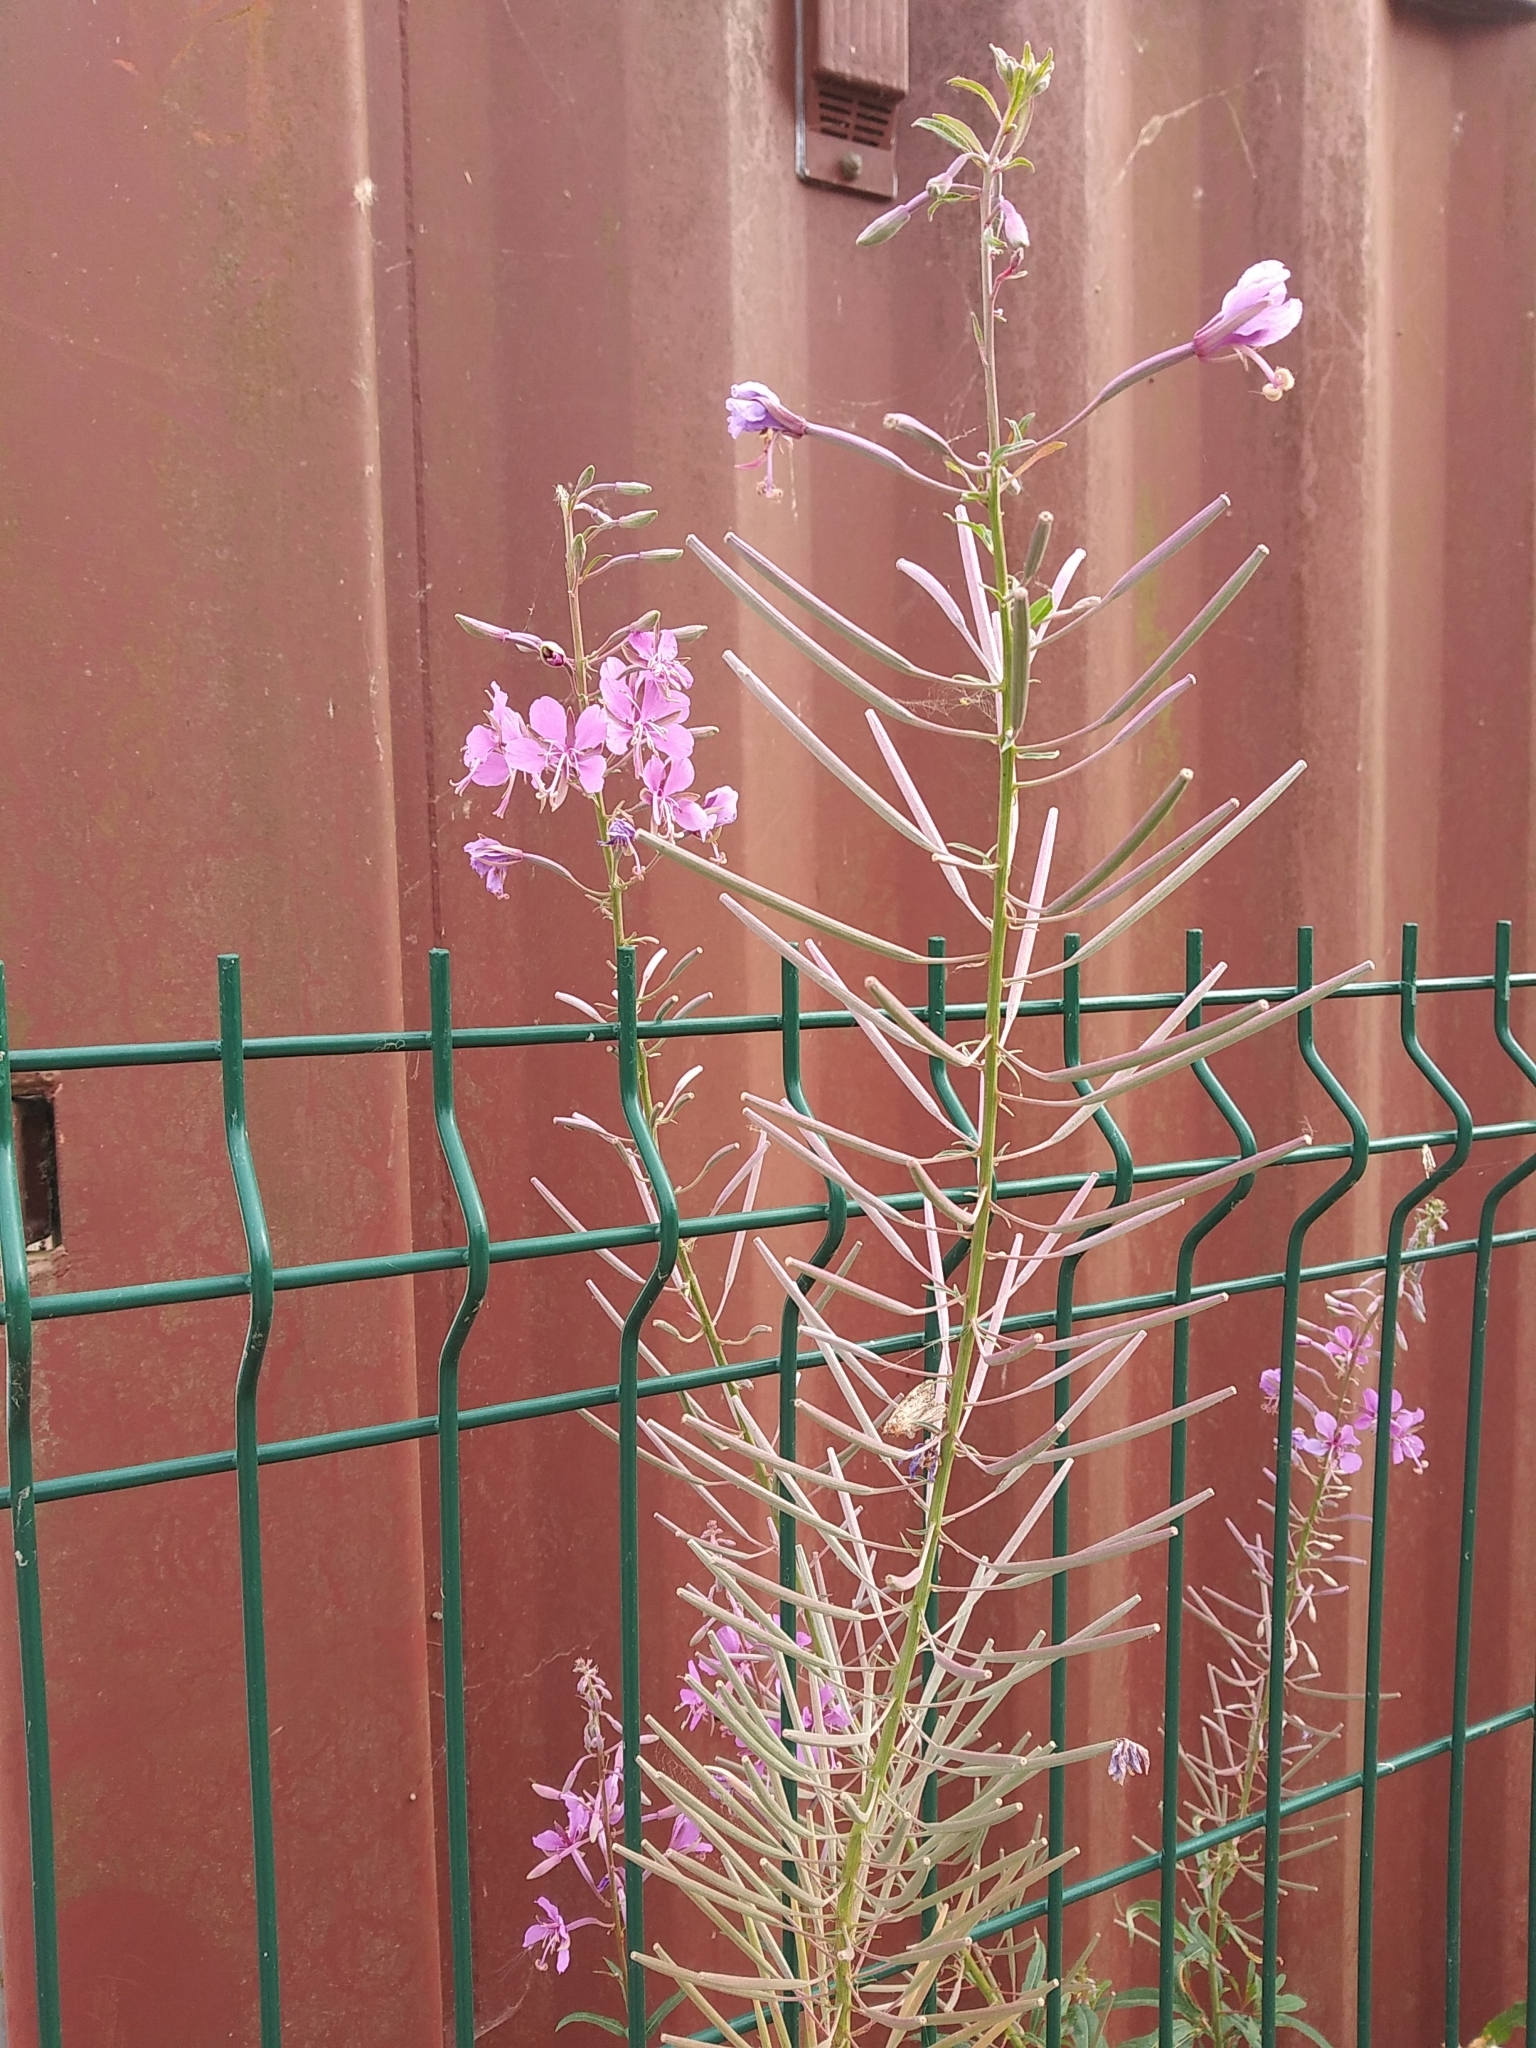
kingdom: Plantae
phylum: Tracheophyta
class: Magnoliopsida
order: Myrtales
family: Onagraceae
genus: Chamaenerion
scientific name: Chamaenerion angustifolium
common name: Fireweed
